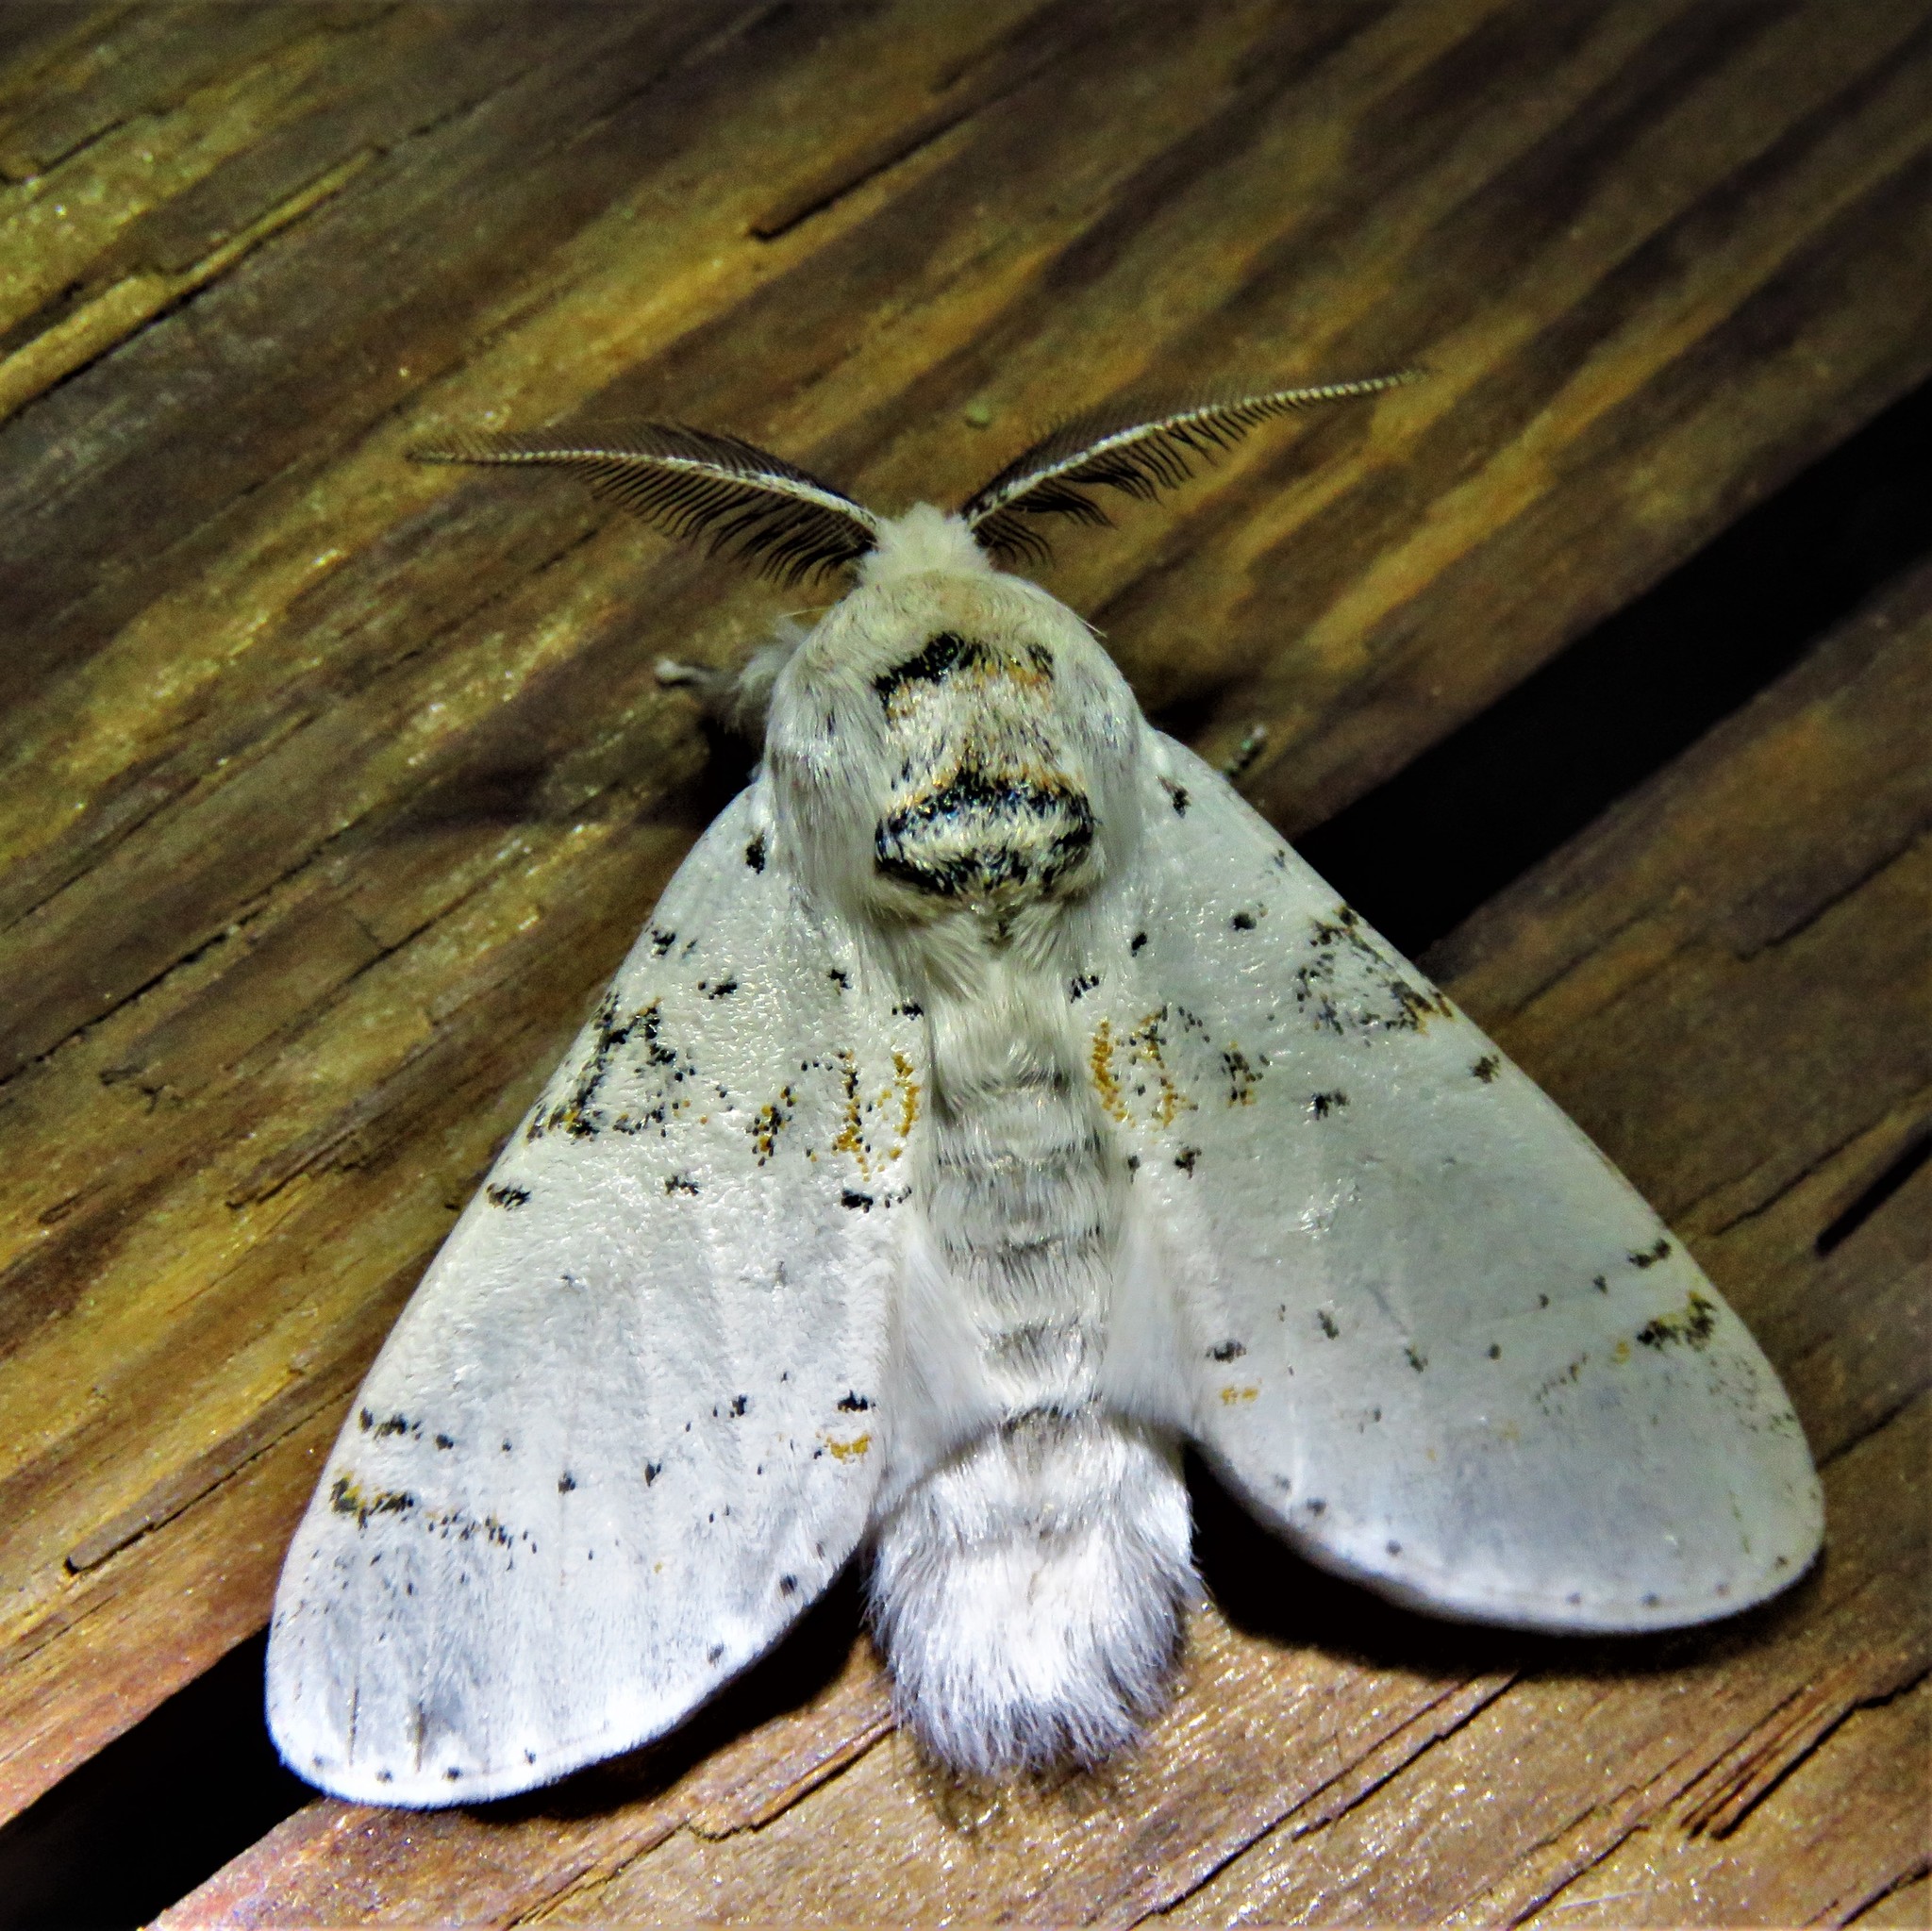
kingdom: Animalia
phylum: Arthropoda
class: Insecta
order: Lepidoptera
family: Notodontidae
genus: Furcula
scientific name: Furcula nivea
